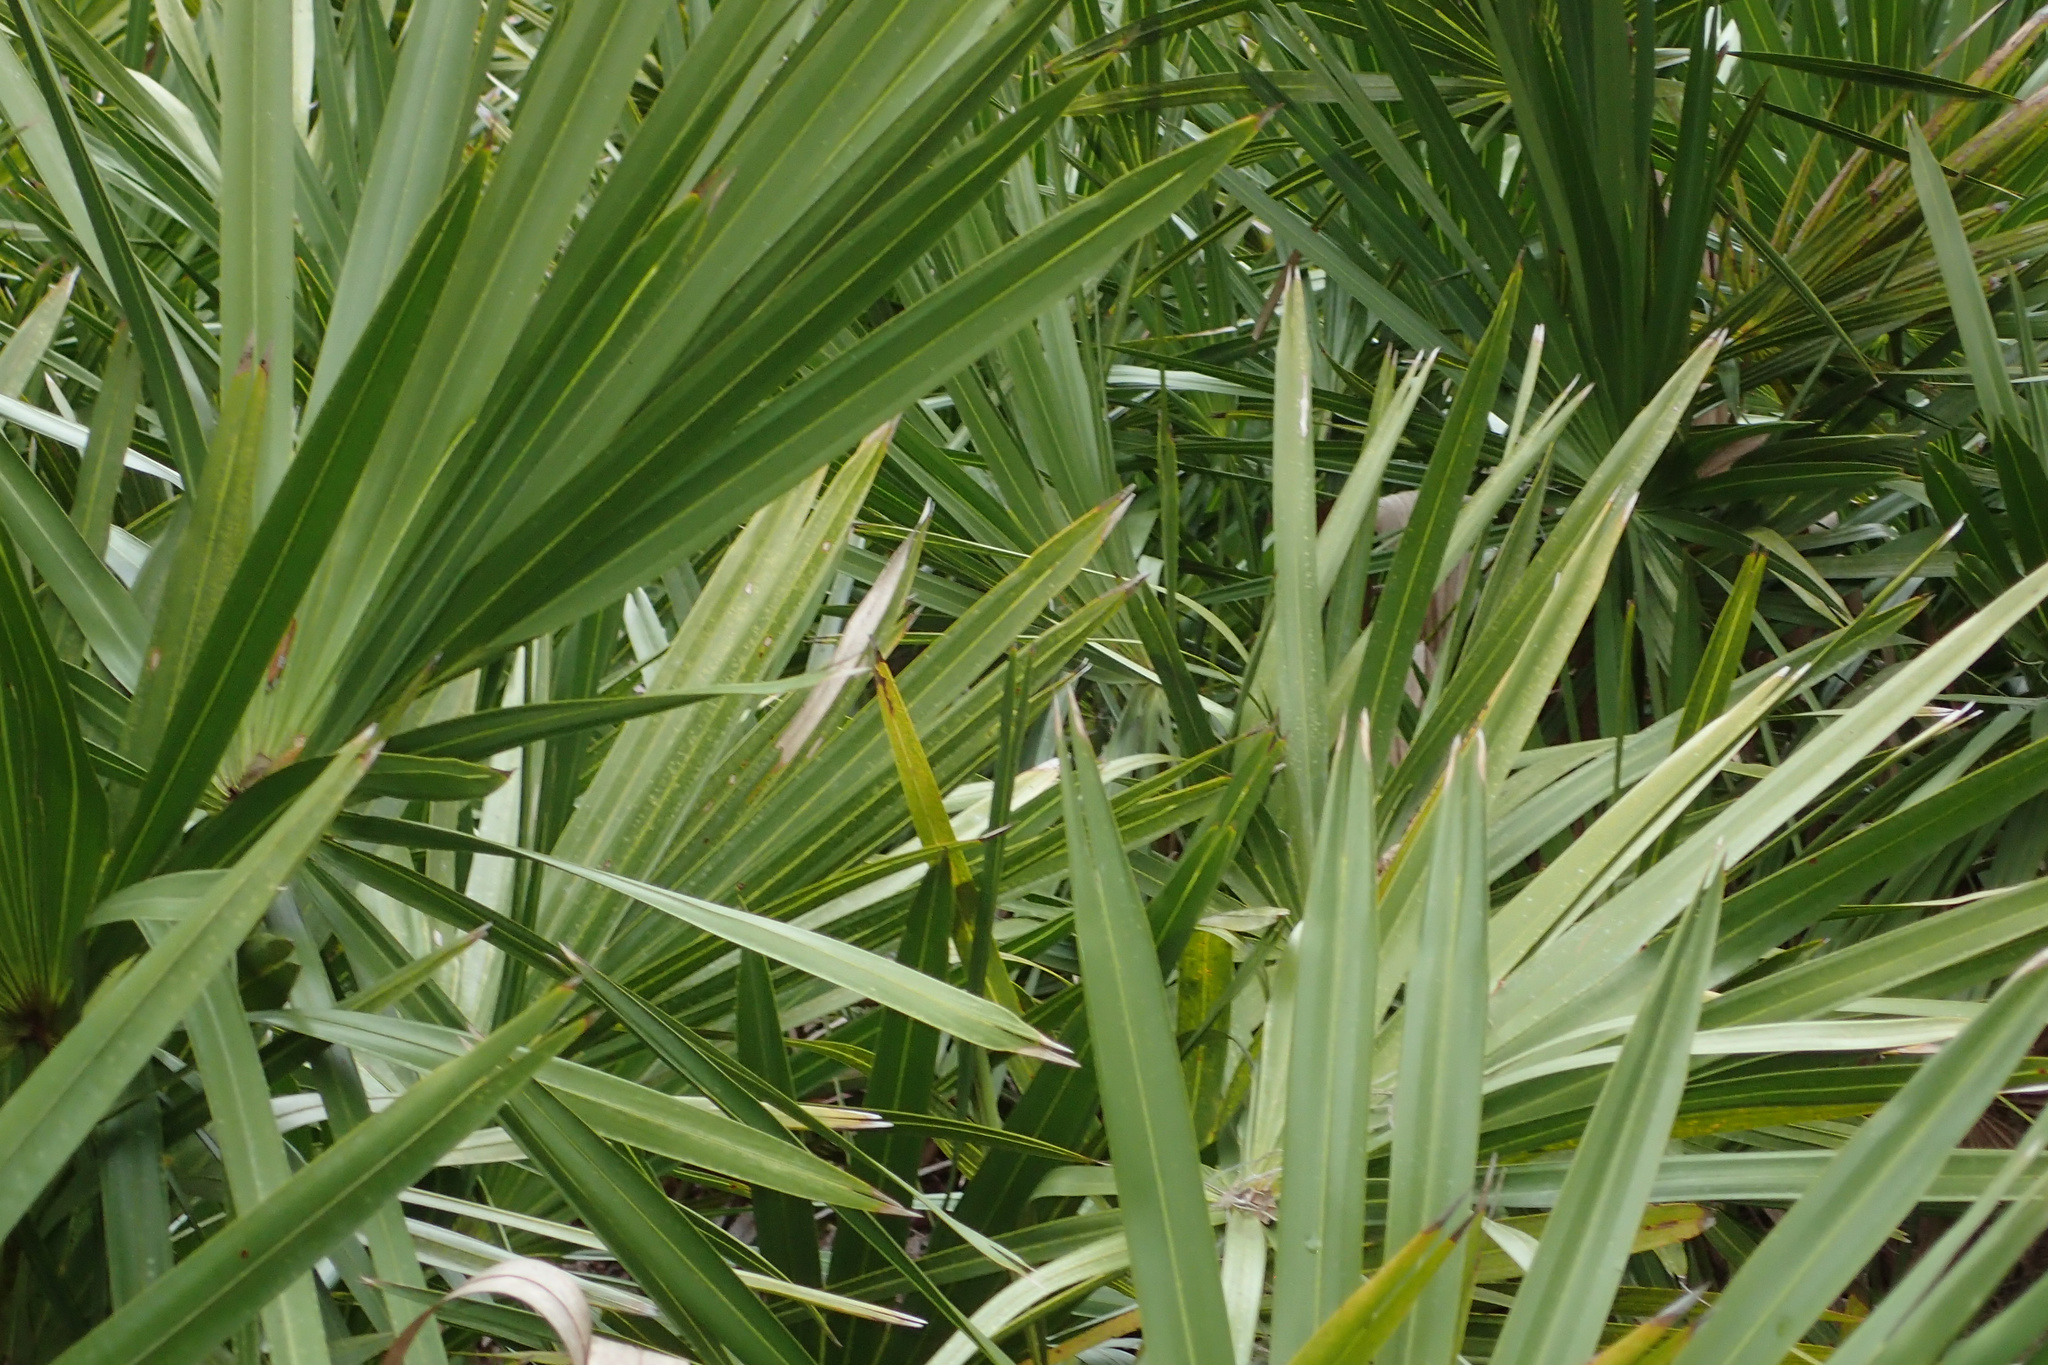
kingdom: Plantae
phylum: Tracheophyta
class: Liliopsida
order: Arecales
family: Arecaceae
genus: Serenoa
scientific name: Serenoa repens
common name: Saw-palmetto
